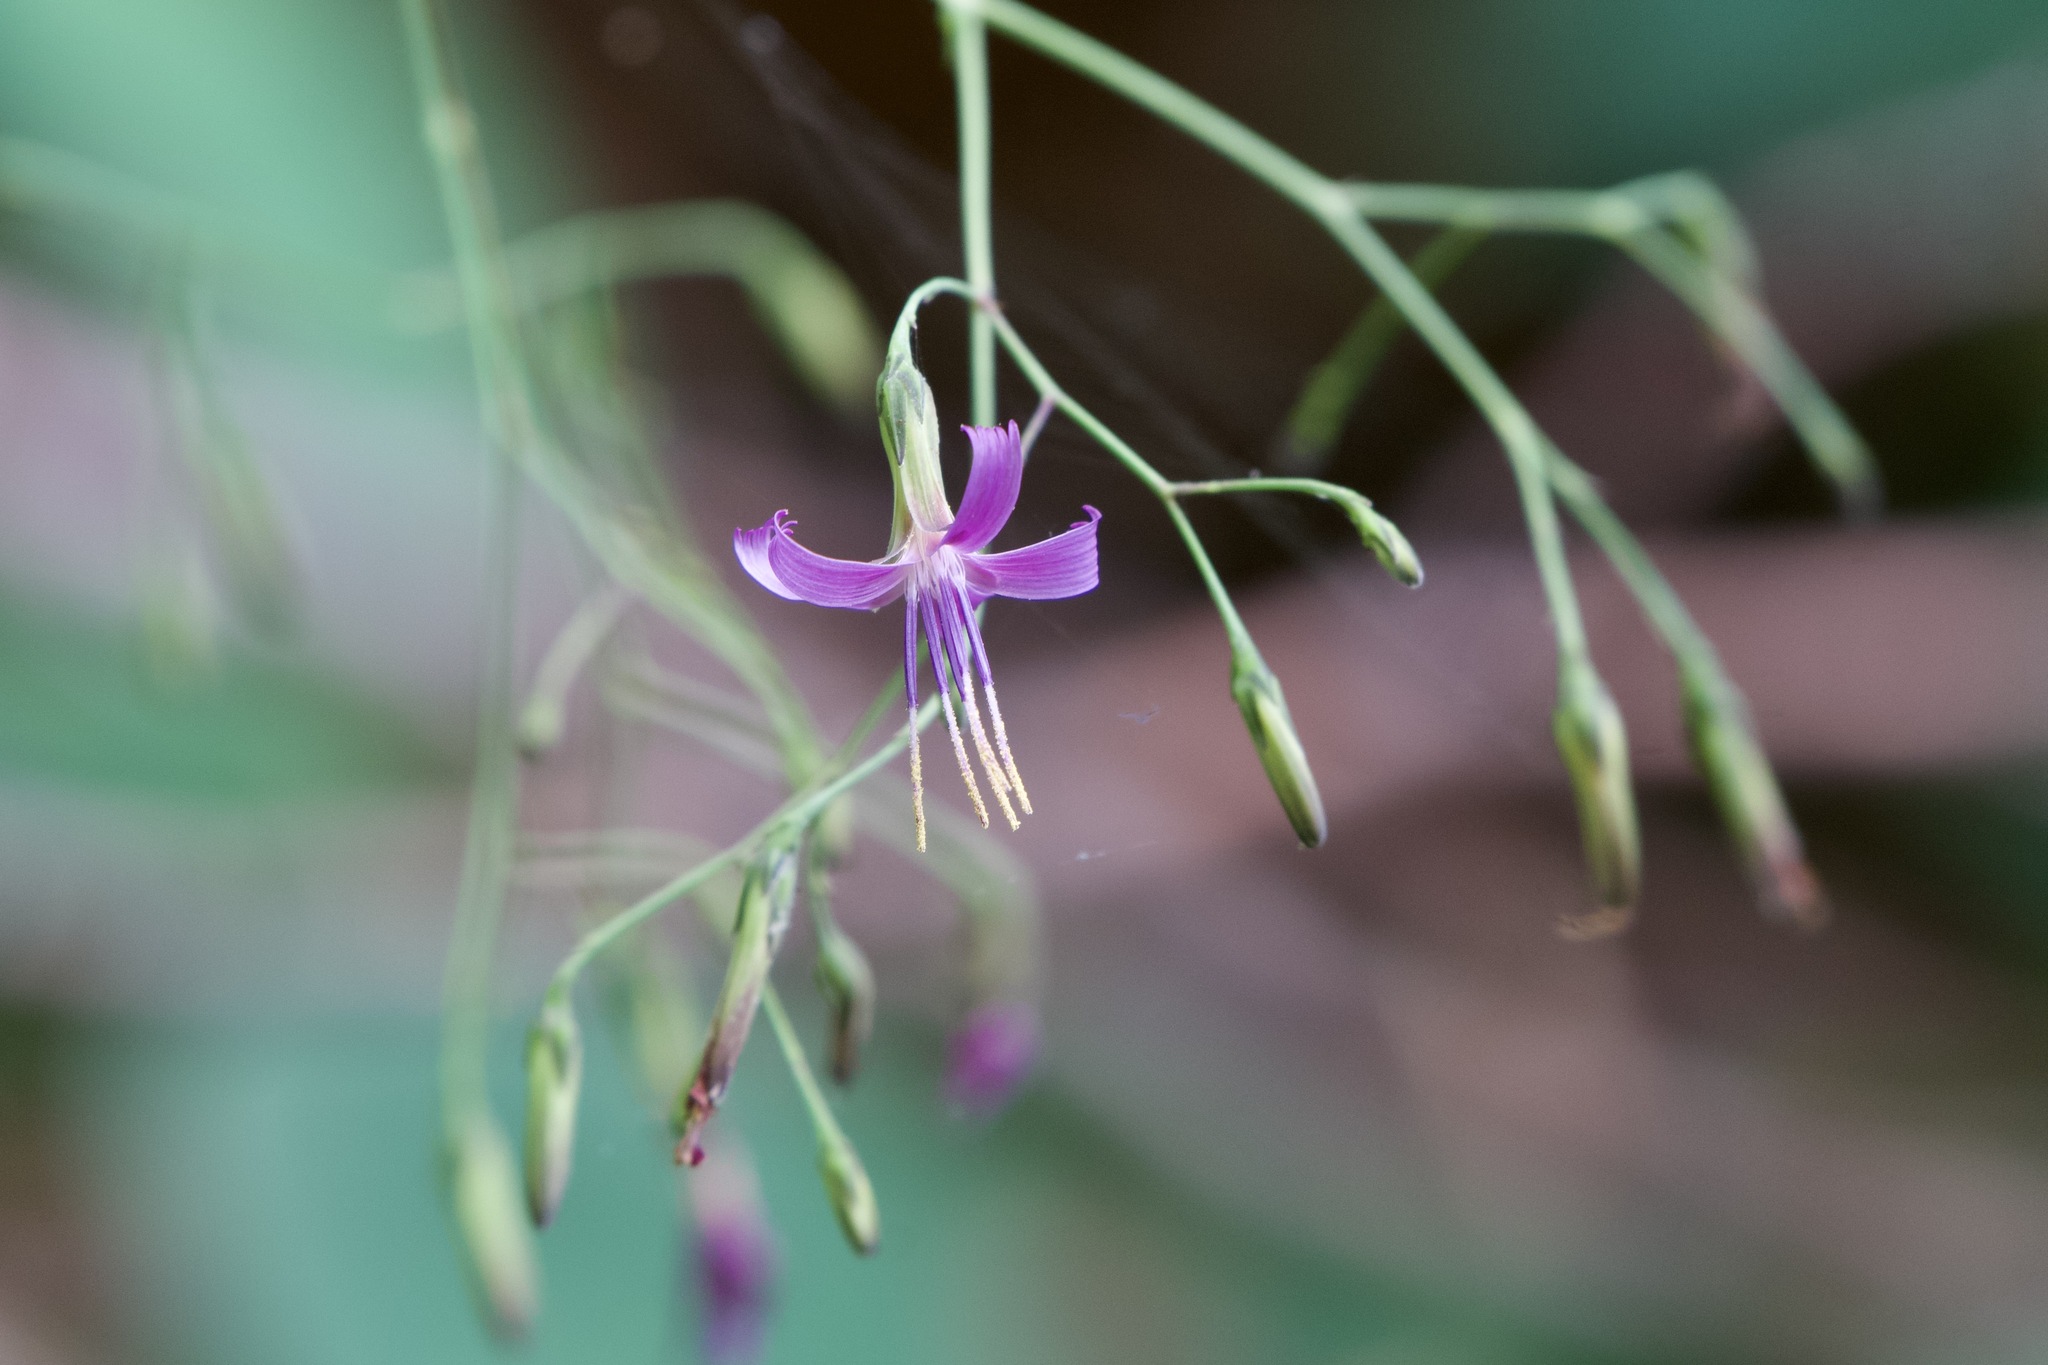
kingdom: Plantae
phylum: Tracheophyta
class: Magnoliopsida
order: Asterales
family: Asteraceae
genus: Prenanthes
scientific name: Prenanthes purpurea
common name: Purple lettuce
